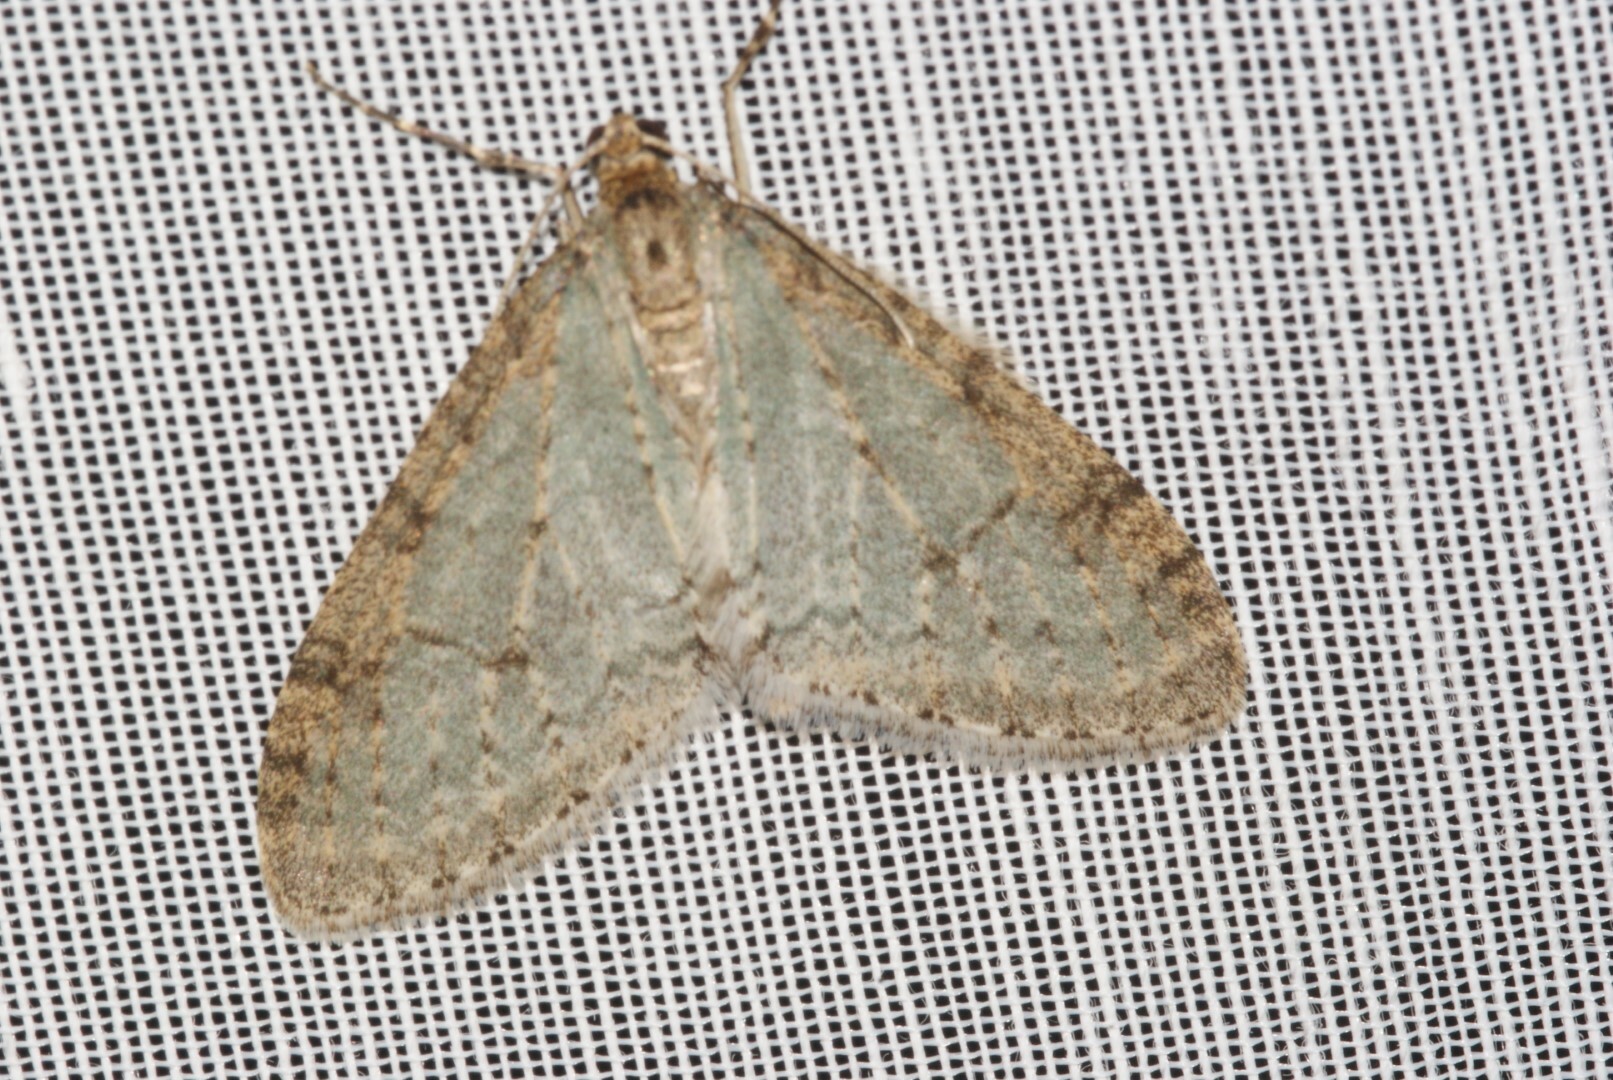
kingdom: Animalia
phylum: Arthropoda
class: Insecta
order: Lepidoptera
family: Geometridae
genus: Trichopteryx
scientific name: Trichopteryx carpinata
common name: Early tooth-striped
